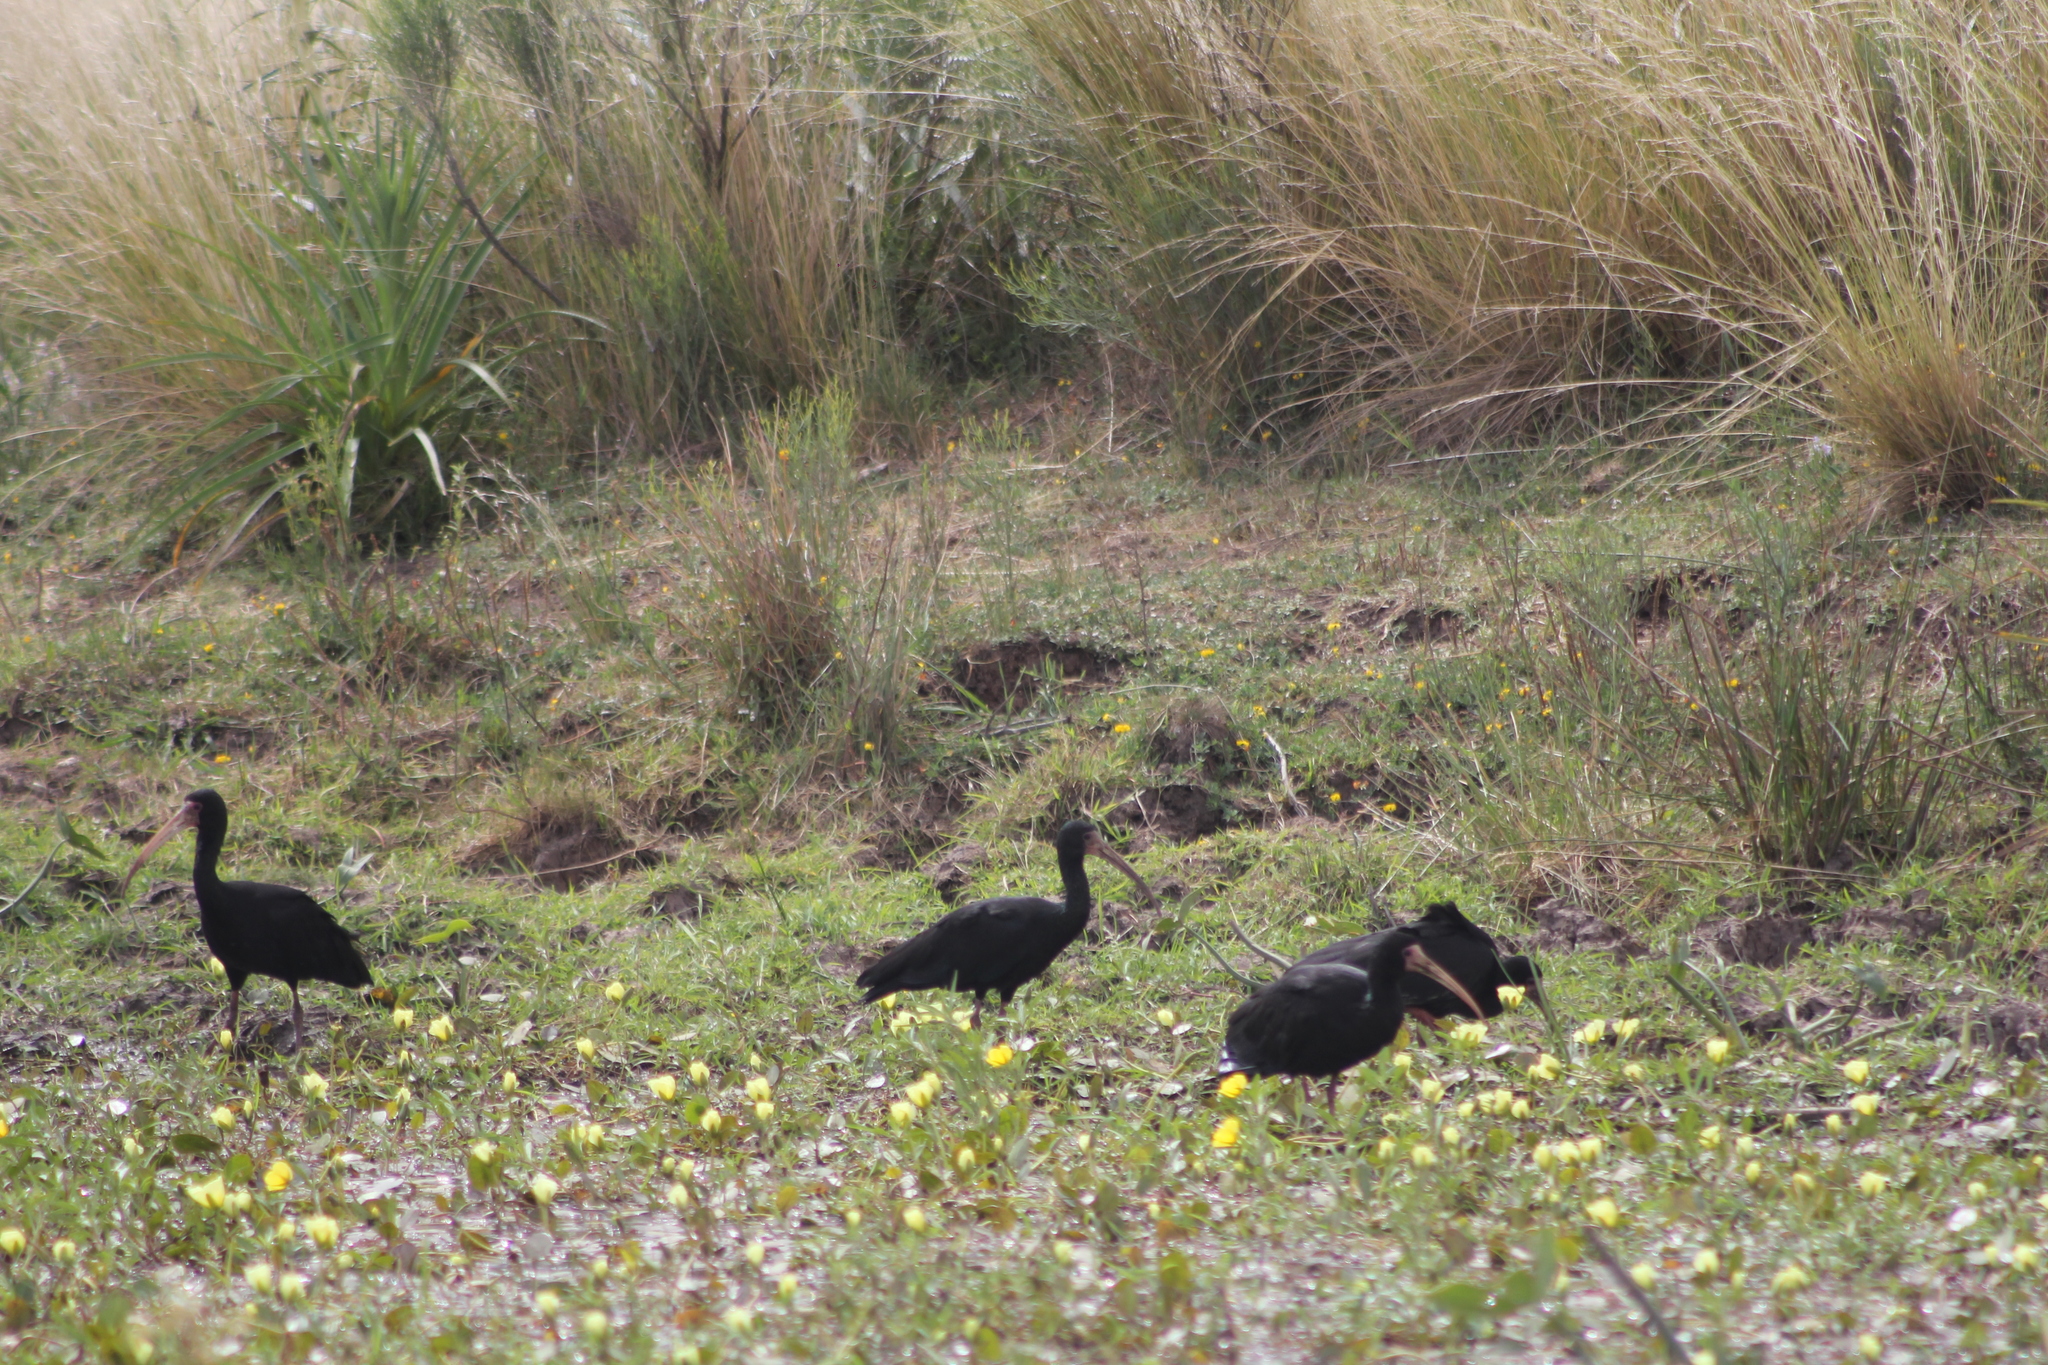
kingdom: Animalia
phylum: Chordata
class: Aves
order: Pelecaniformes
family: Threskiornithidae
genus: Phimosus
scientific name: Phimosus infuscatus
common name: Bare-faced ibis
